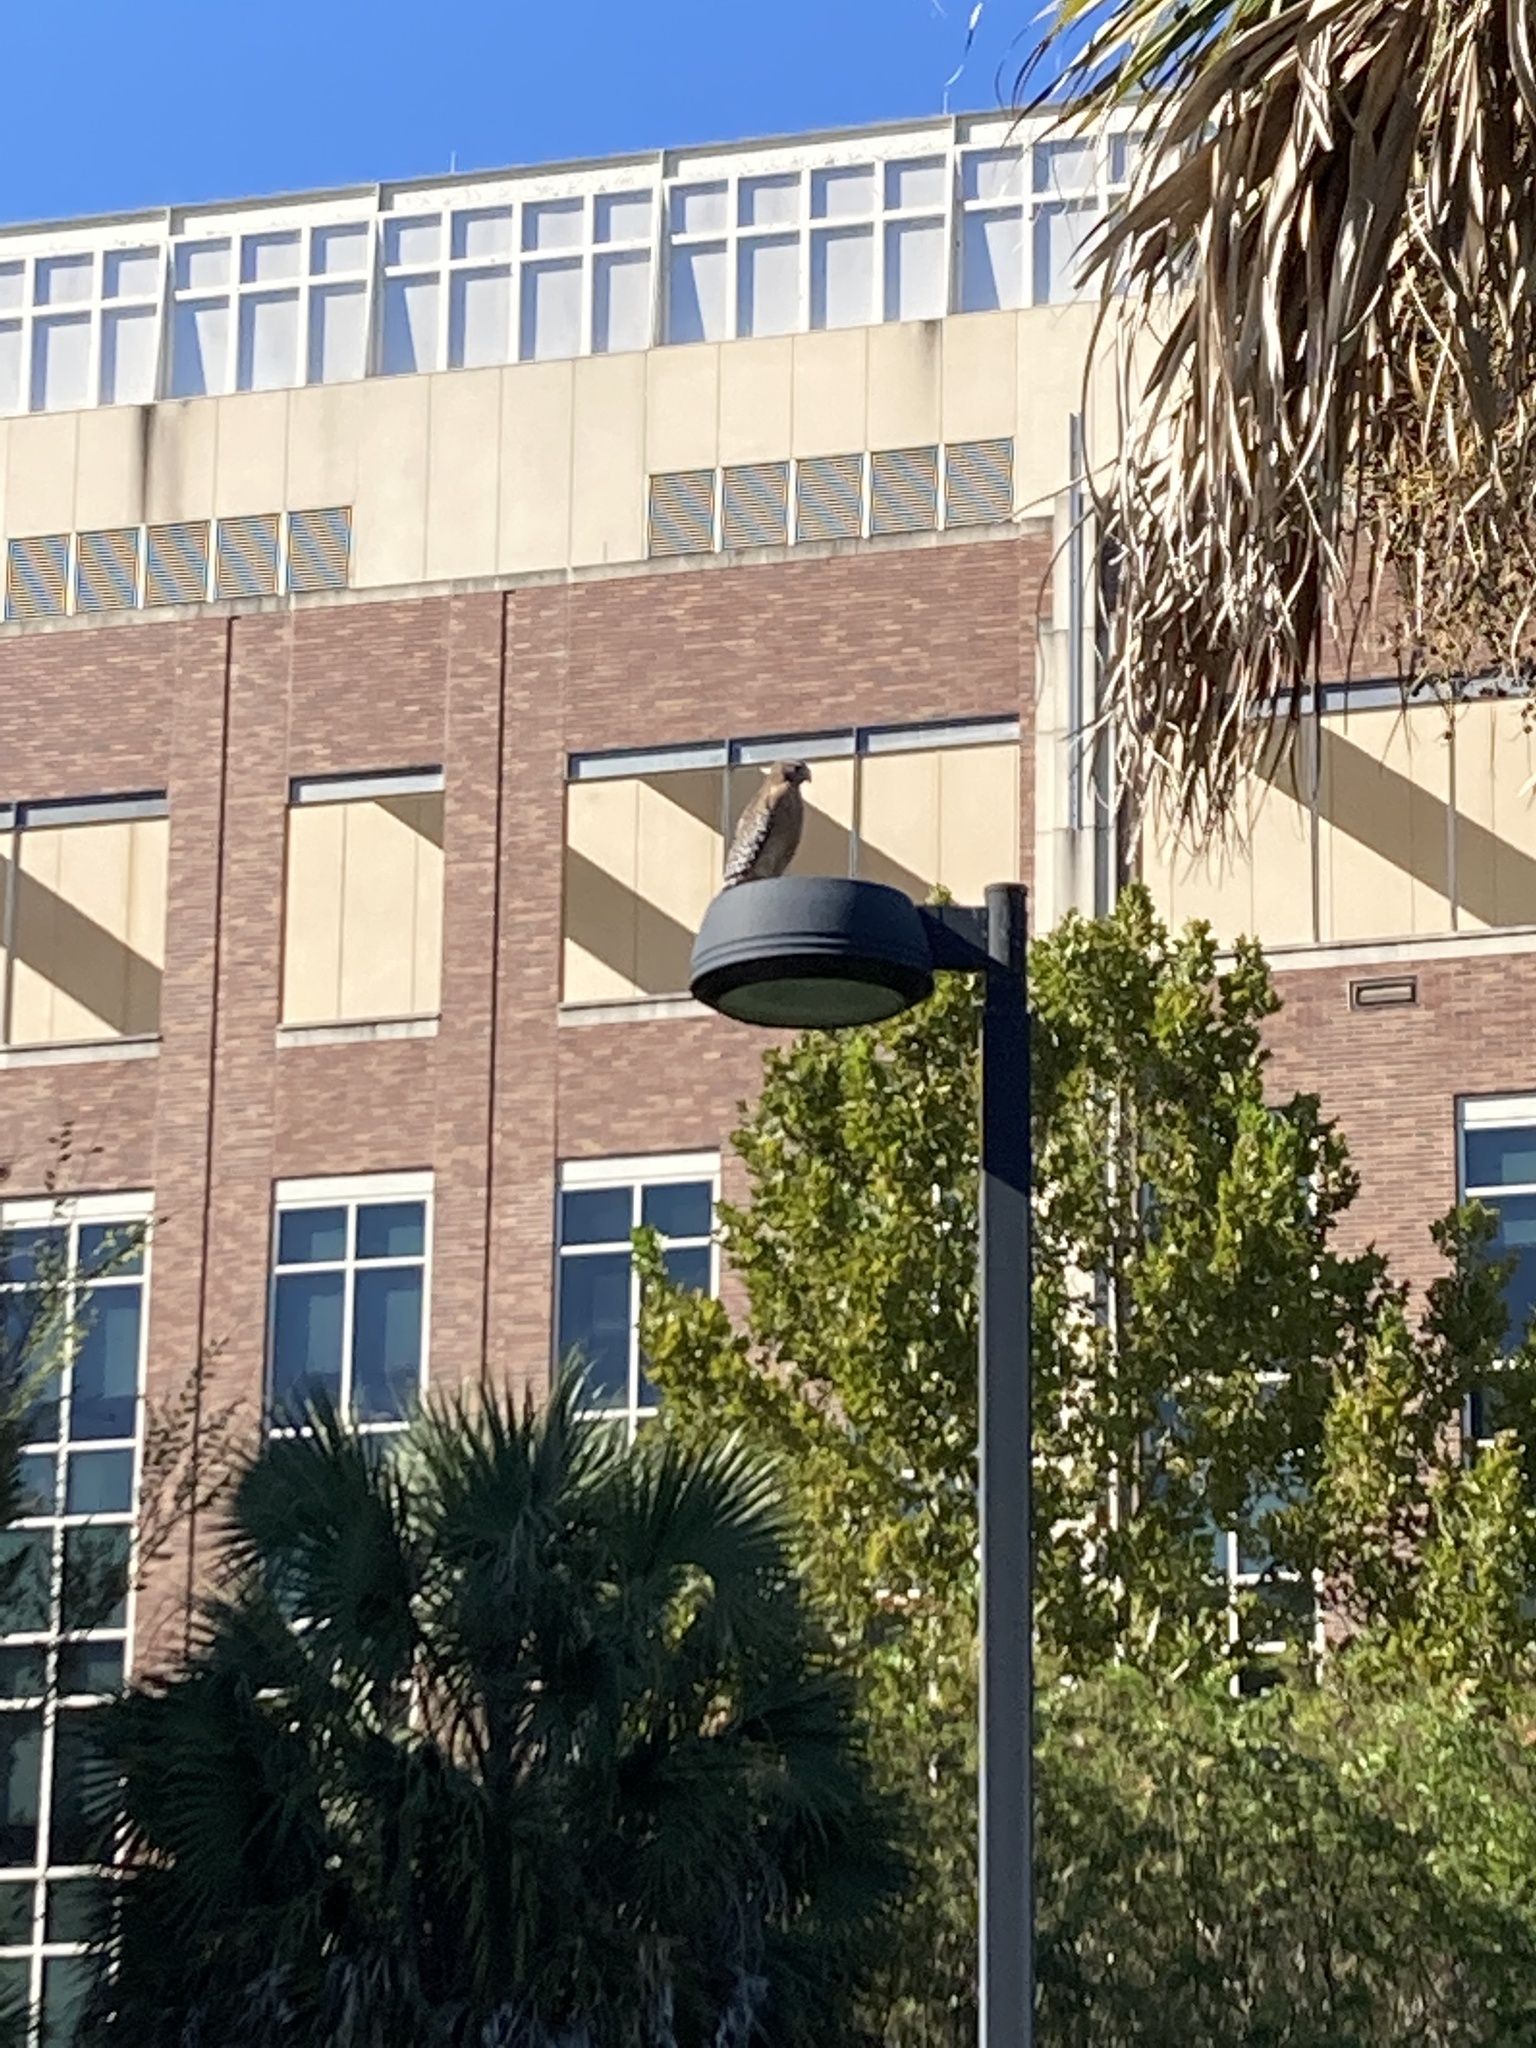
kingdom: Animalia
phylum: Chordata
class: Aves
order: Accipitriformes
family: Accipitridae
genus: Buteo
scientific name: Buteo lineatus
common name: Red-shouldered hawk
